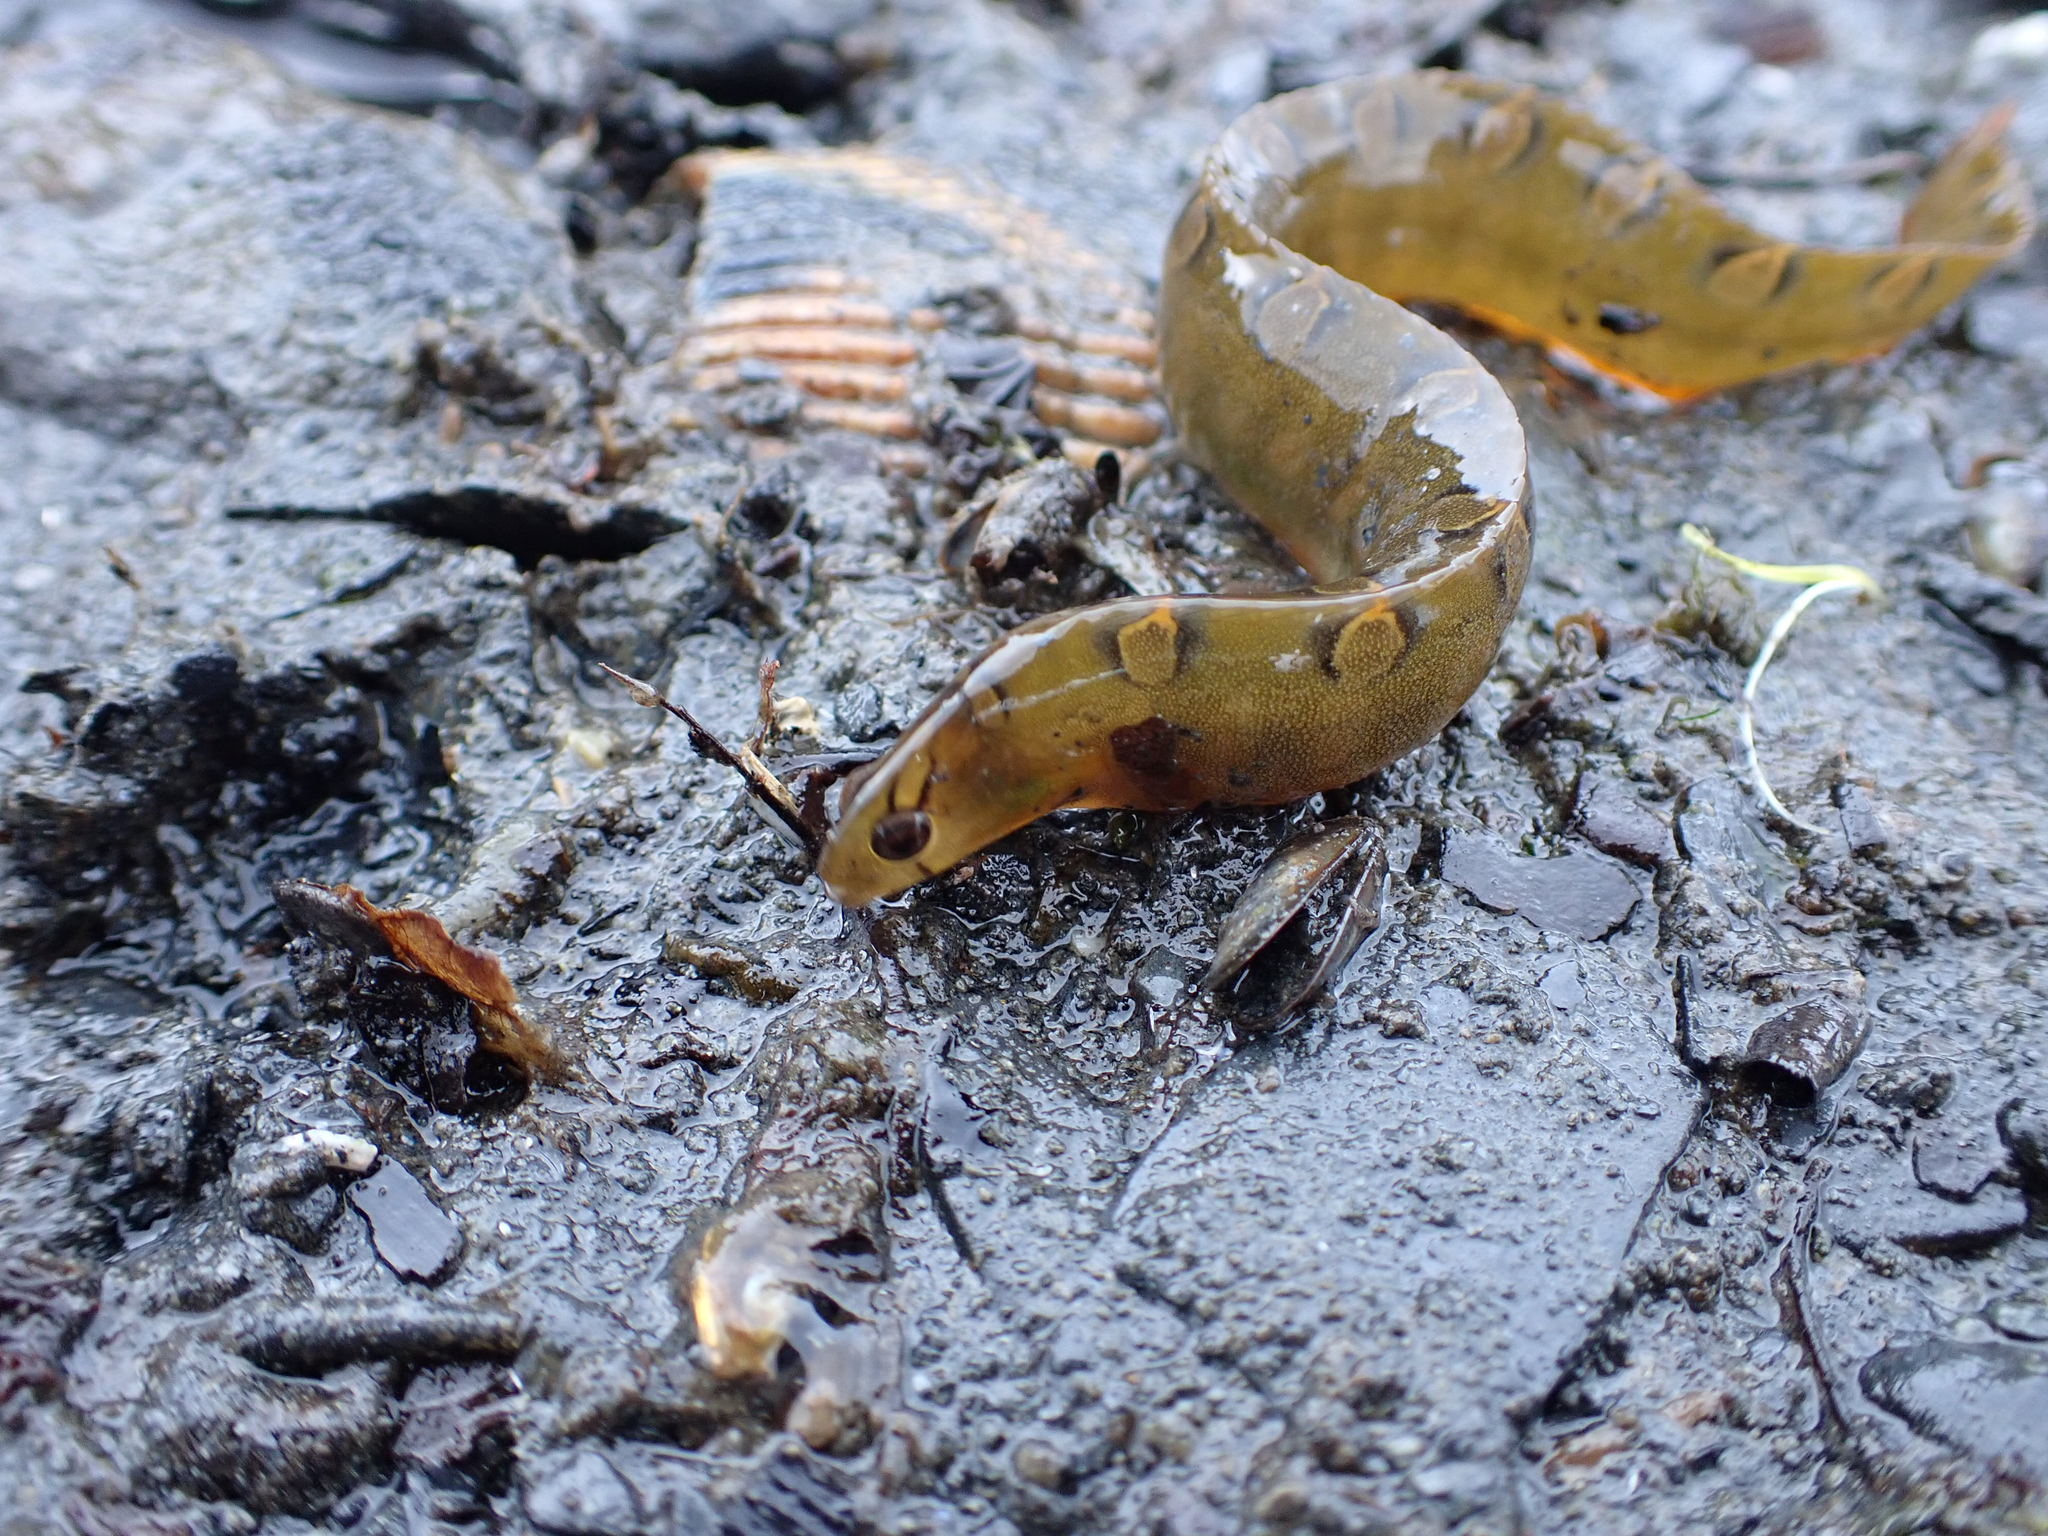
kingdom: Animalia
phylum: Chordata
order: Perciformes
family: Pholidae
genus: Pholis
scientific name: Pholis laeta
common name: Crescent gunnel
